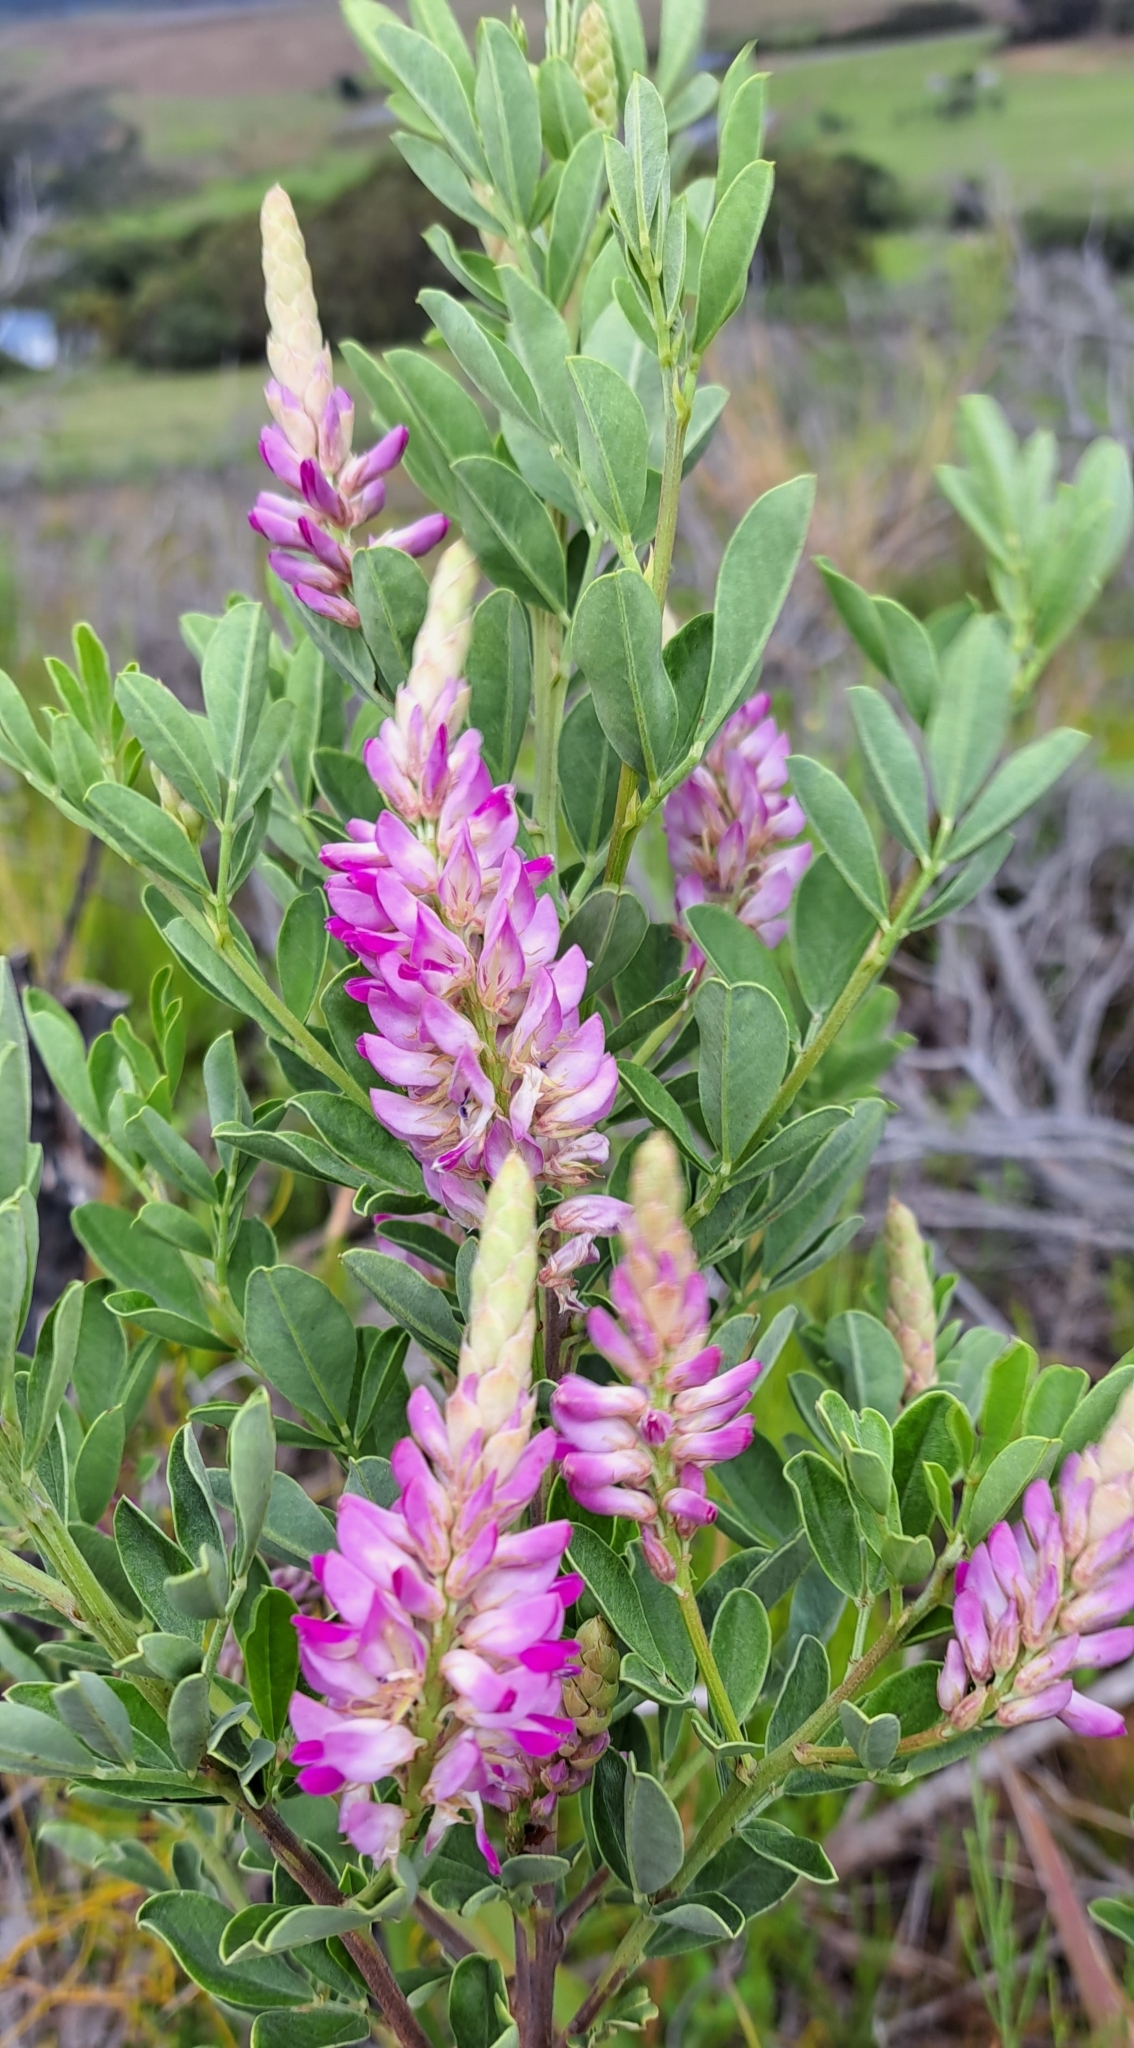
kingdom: Plantae
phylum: Tracheophyta
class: Magnoliopsida
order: Fabales
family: Fabaceae
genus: Indigofera
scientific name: Indigofera cytisoides
